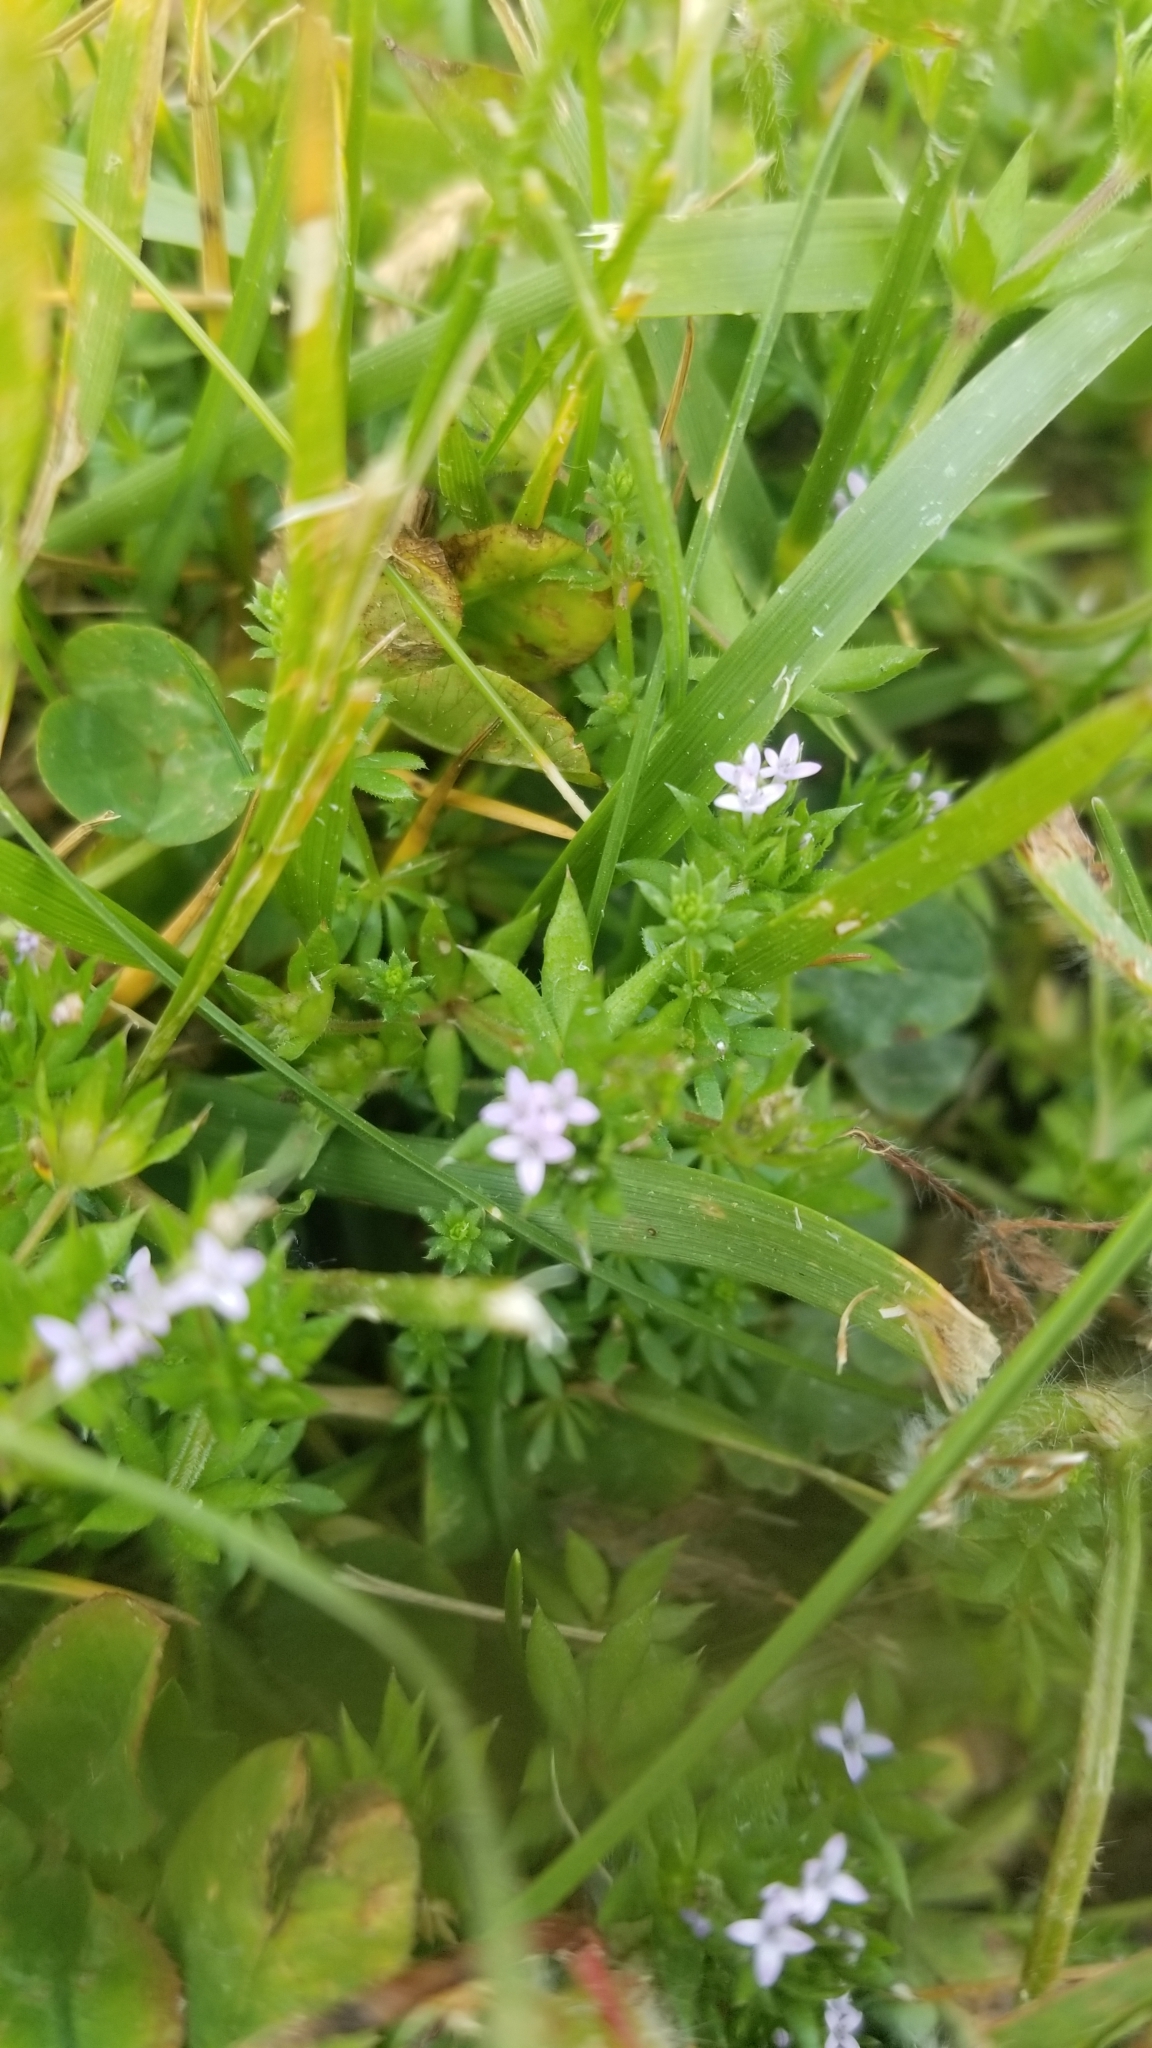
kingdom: Plantae
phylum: Tracheophyta
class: Magnoliopsida
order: Gentianales
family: Rubiaceae
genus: Sherardia
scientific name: Sherardia arvensis
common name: Field madder
